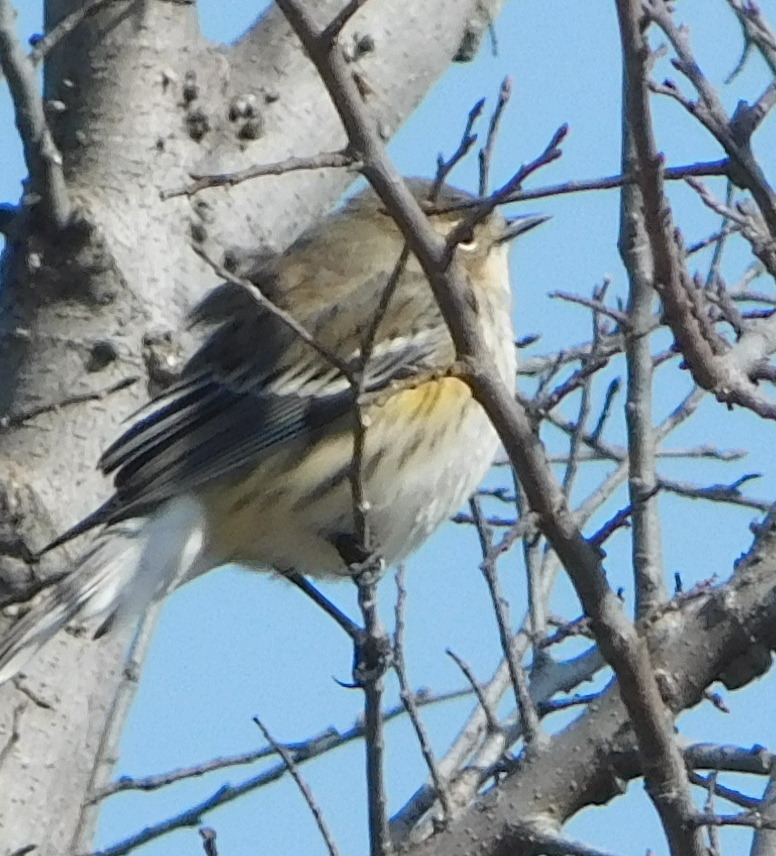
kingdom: Animalia
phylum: Chordata
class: Aves
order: Passeriformes
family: Parulidae
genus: Setophaga
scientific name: Setophaga coronata
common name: Myrtle warbler
